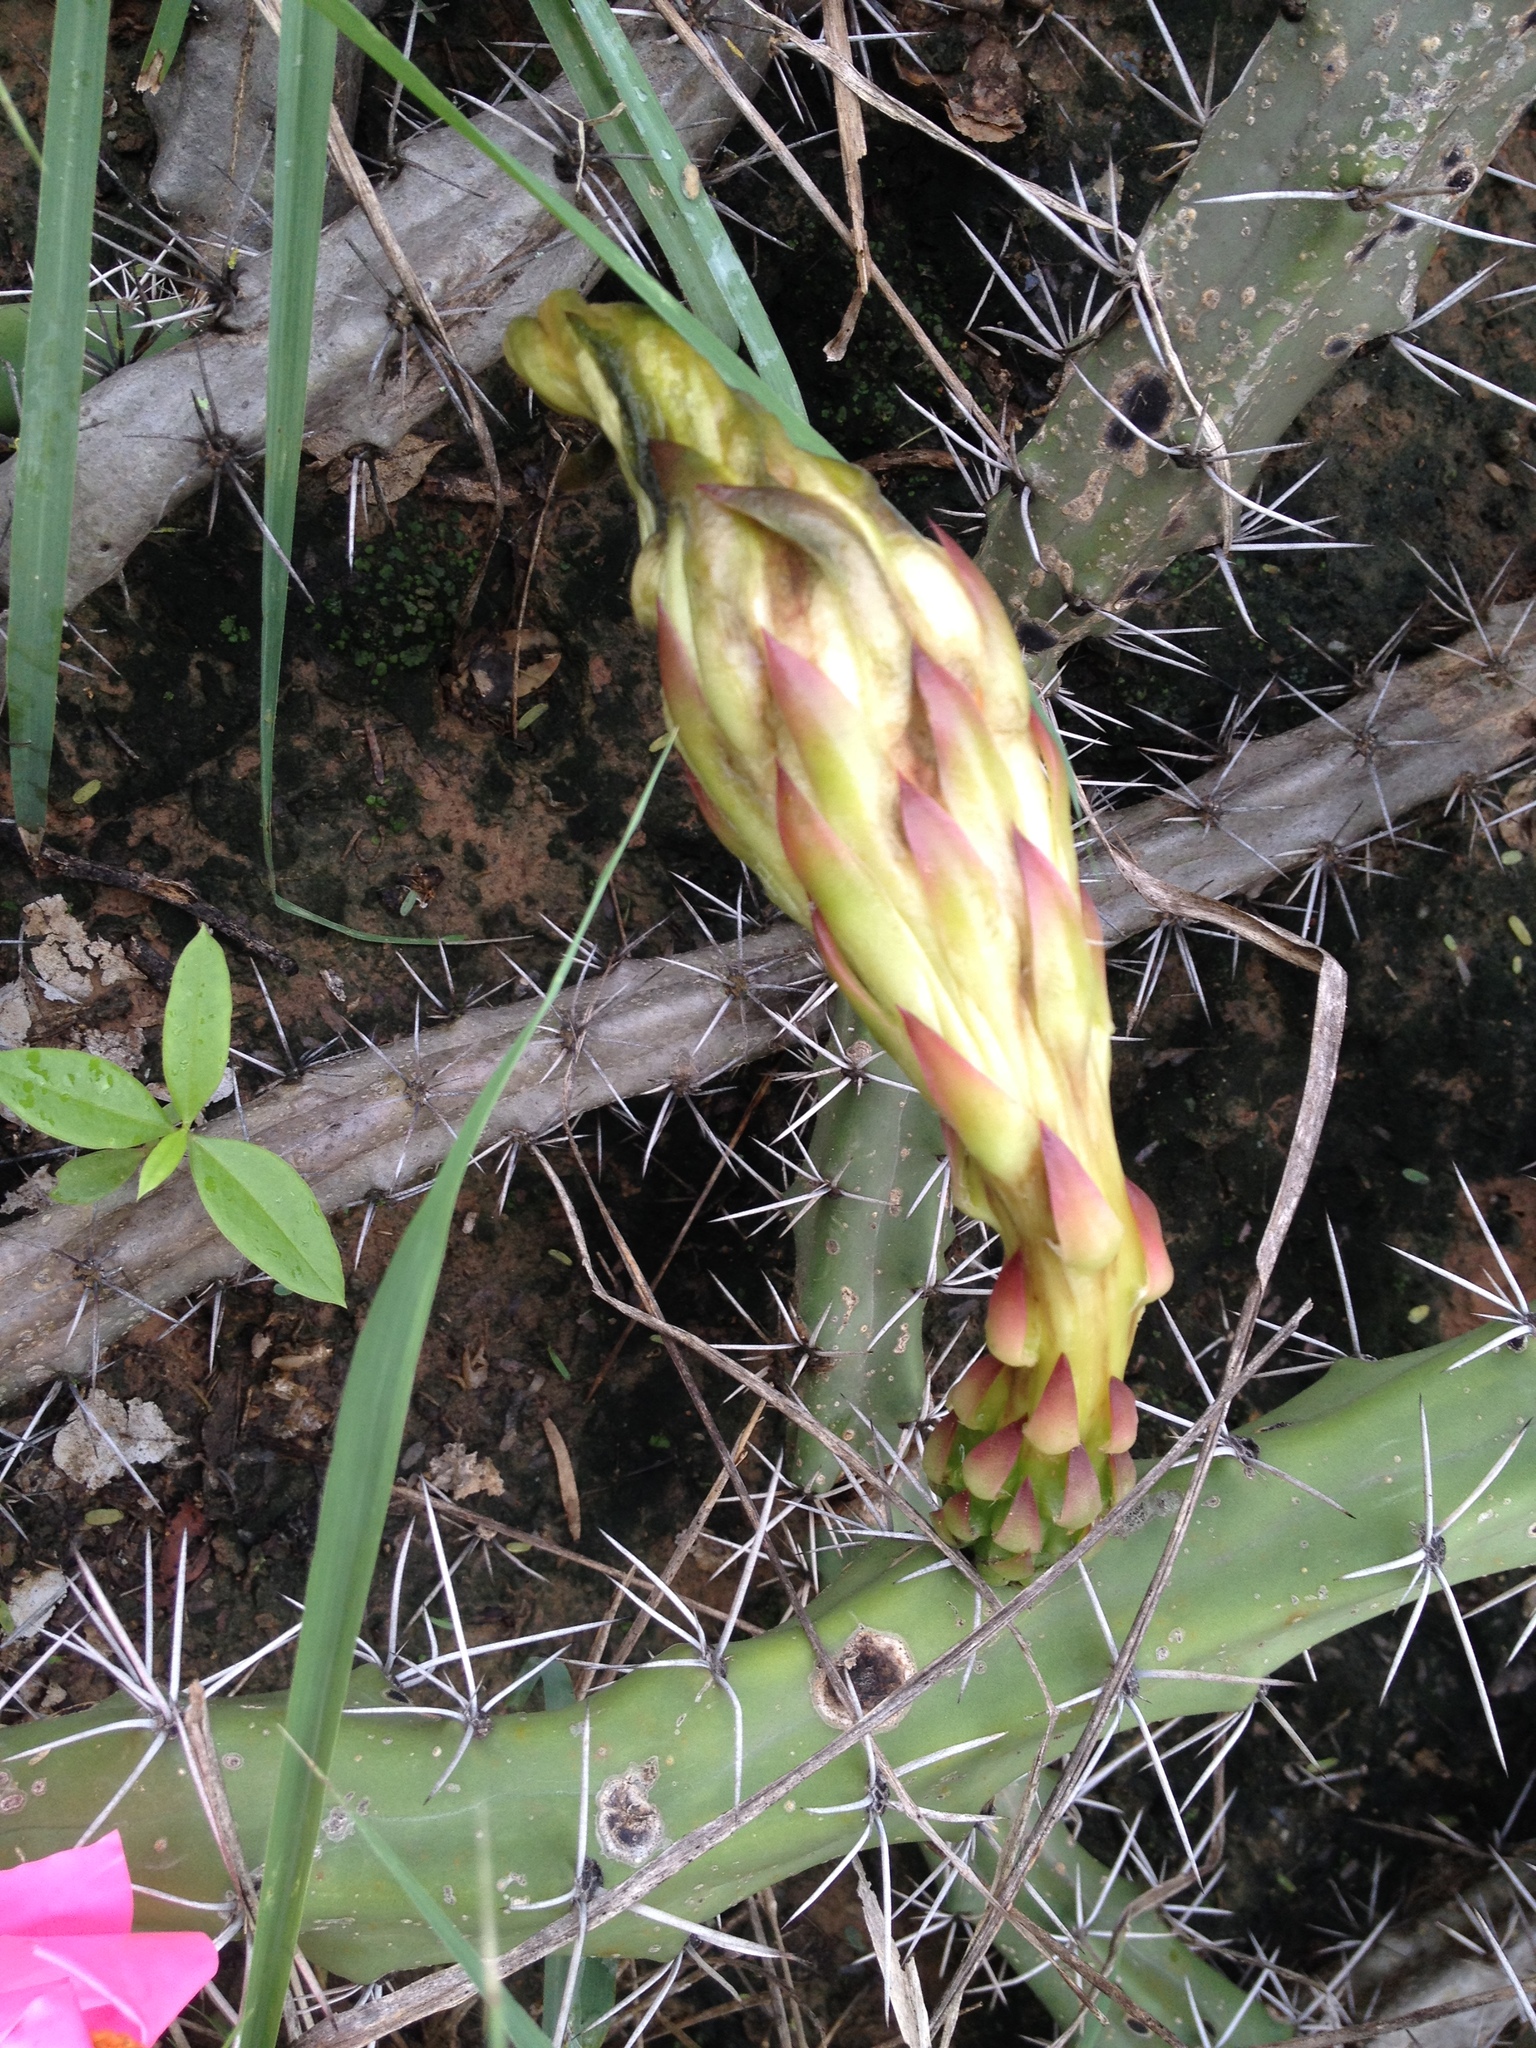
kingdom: Plantae
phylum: Tracheophyta
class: Magnoliopsida
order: Caryophyllales
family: Cactaceae
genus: Harrisia
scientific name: Harrisia pomanensis
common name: Midnight-lady
